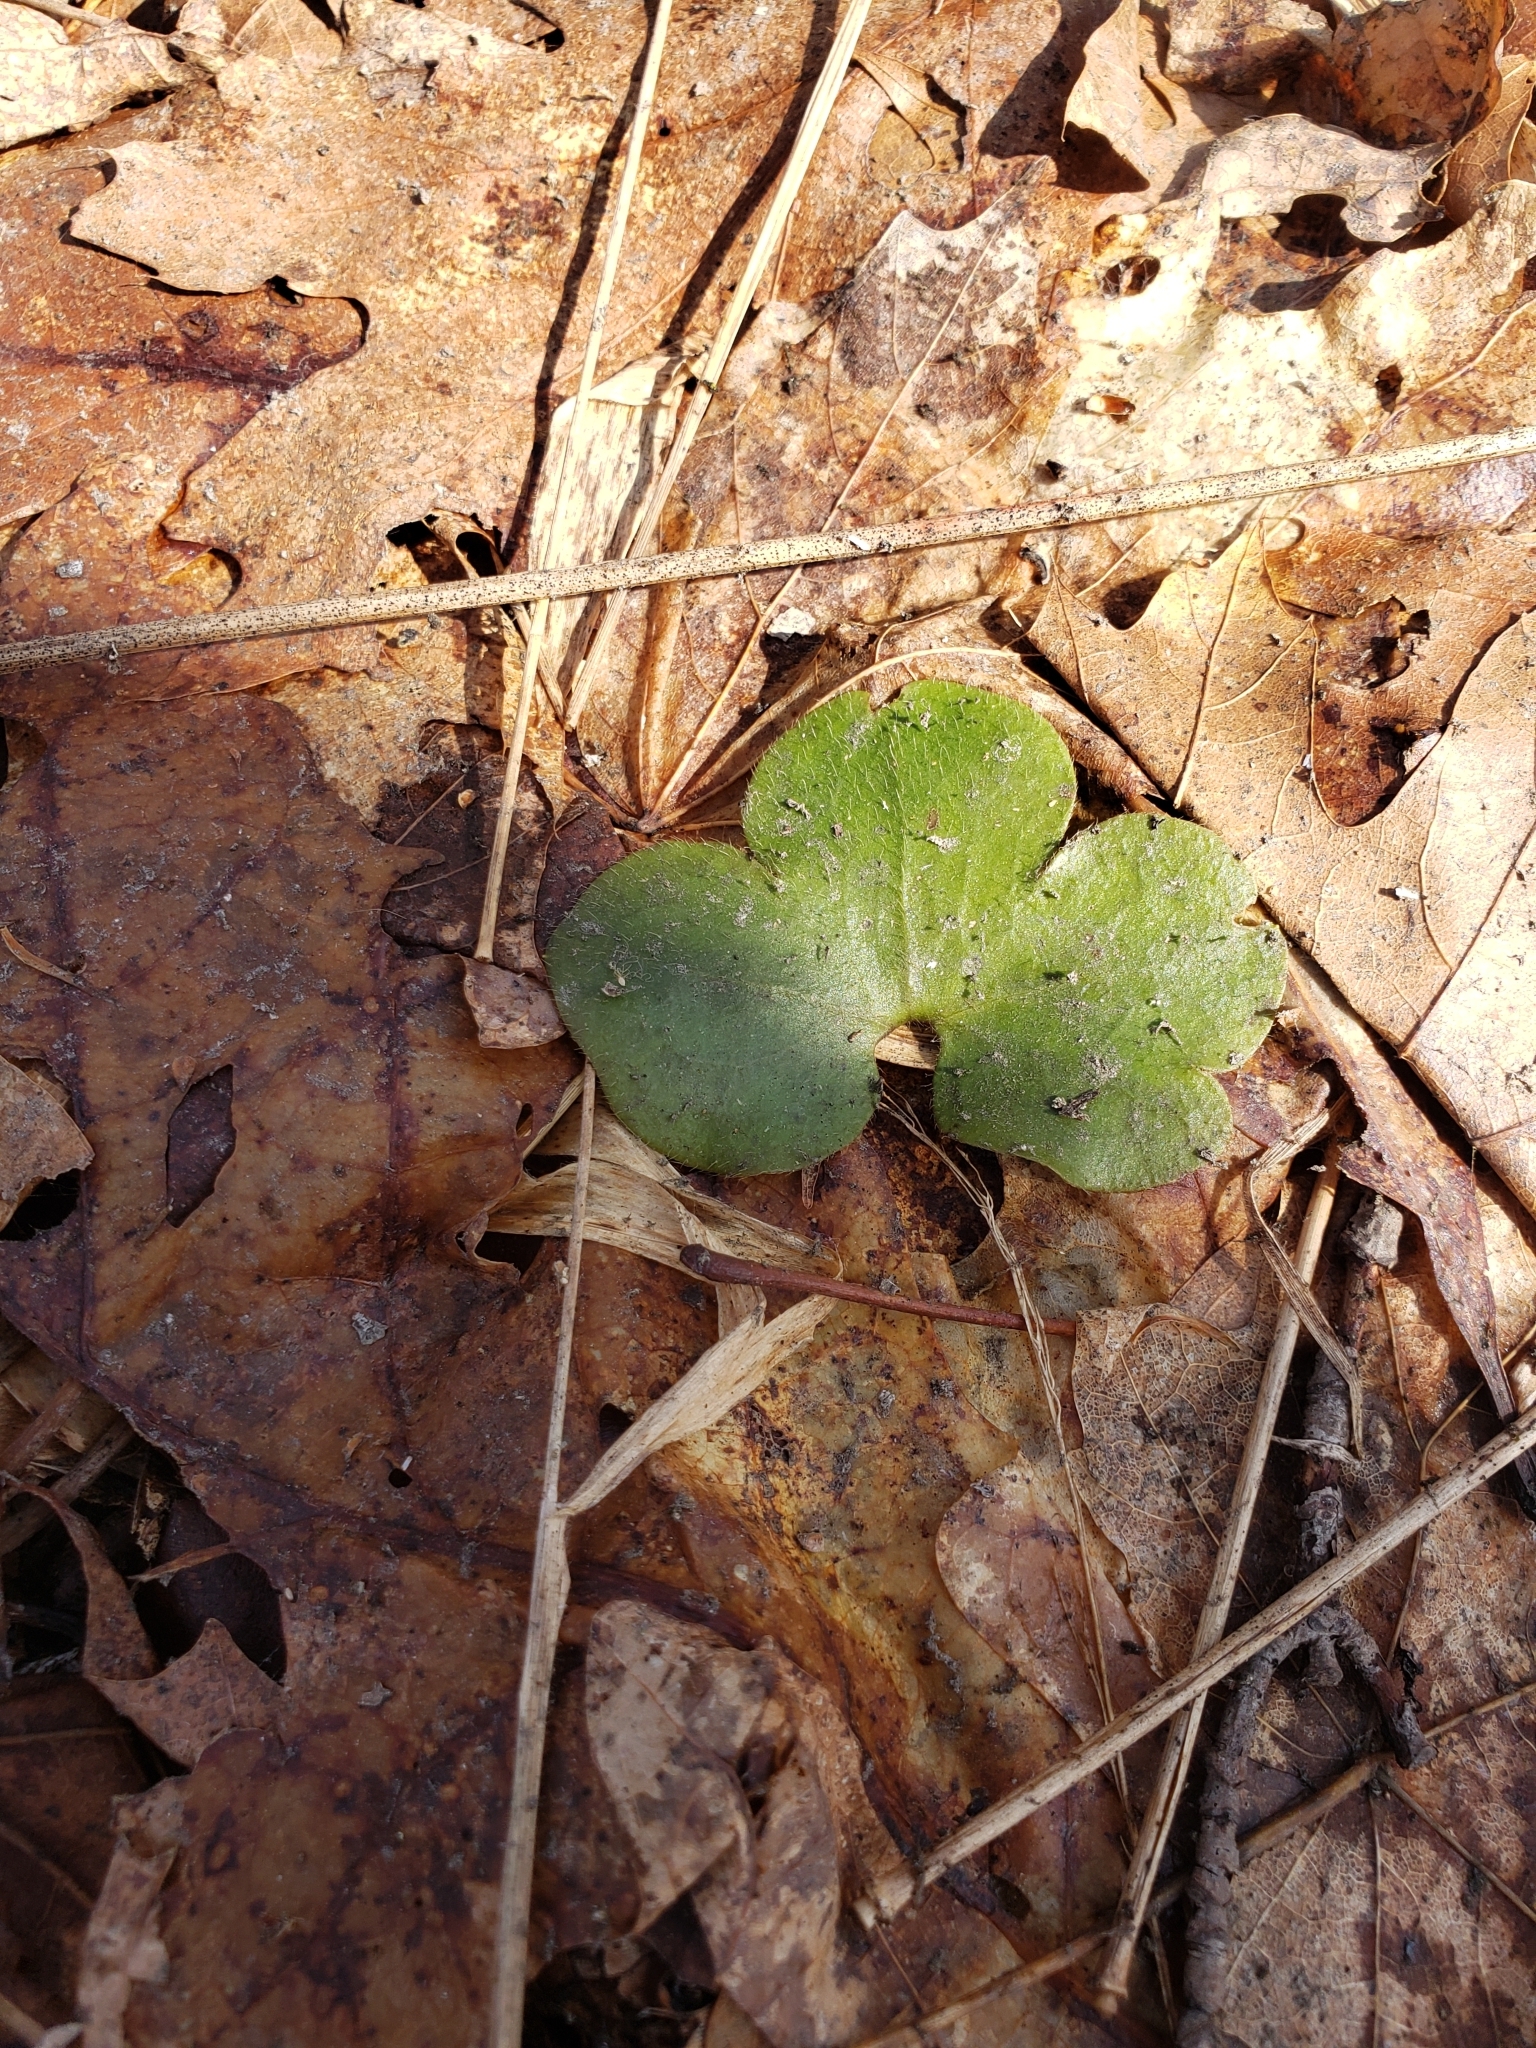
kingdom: Plantae
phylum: Tracheophyta
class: Magnoliopsida
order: Ranunculales
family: Ranunculaceae
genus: Hepatica
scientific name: Hepatica americana
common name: American hepatica
